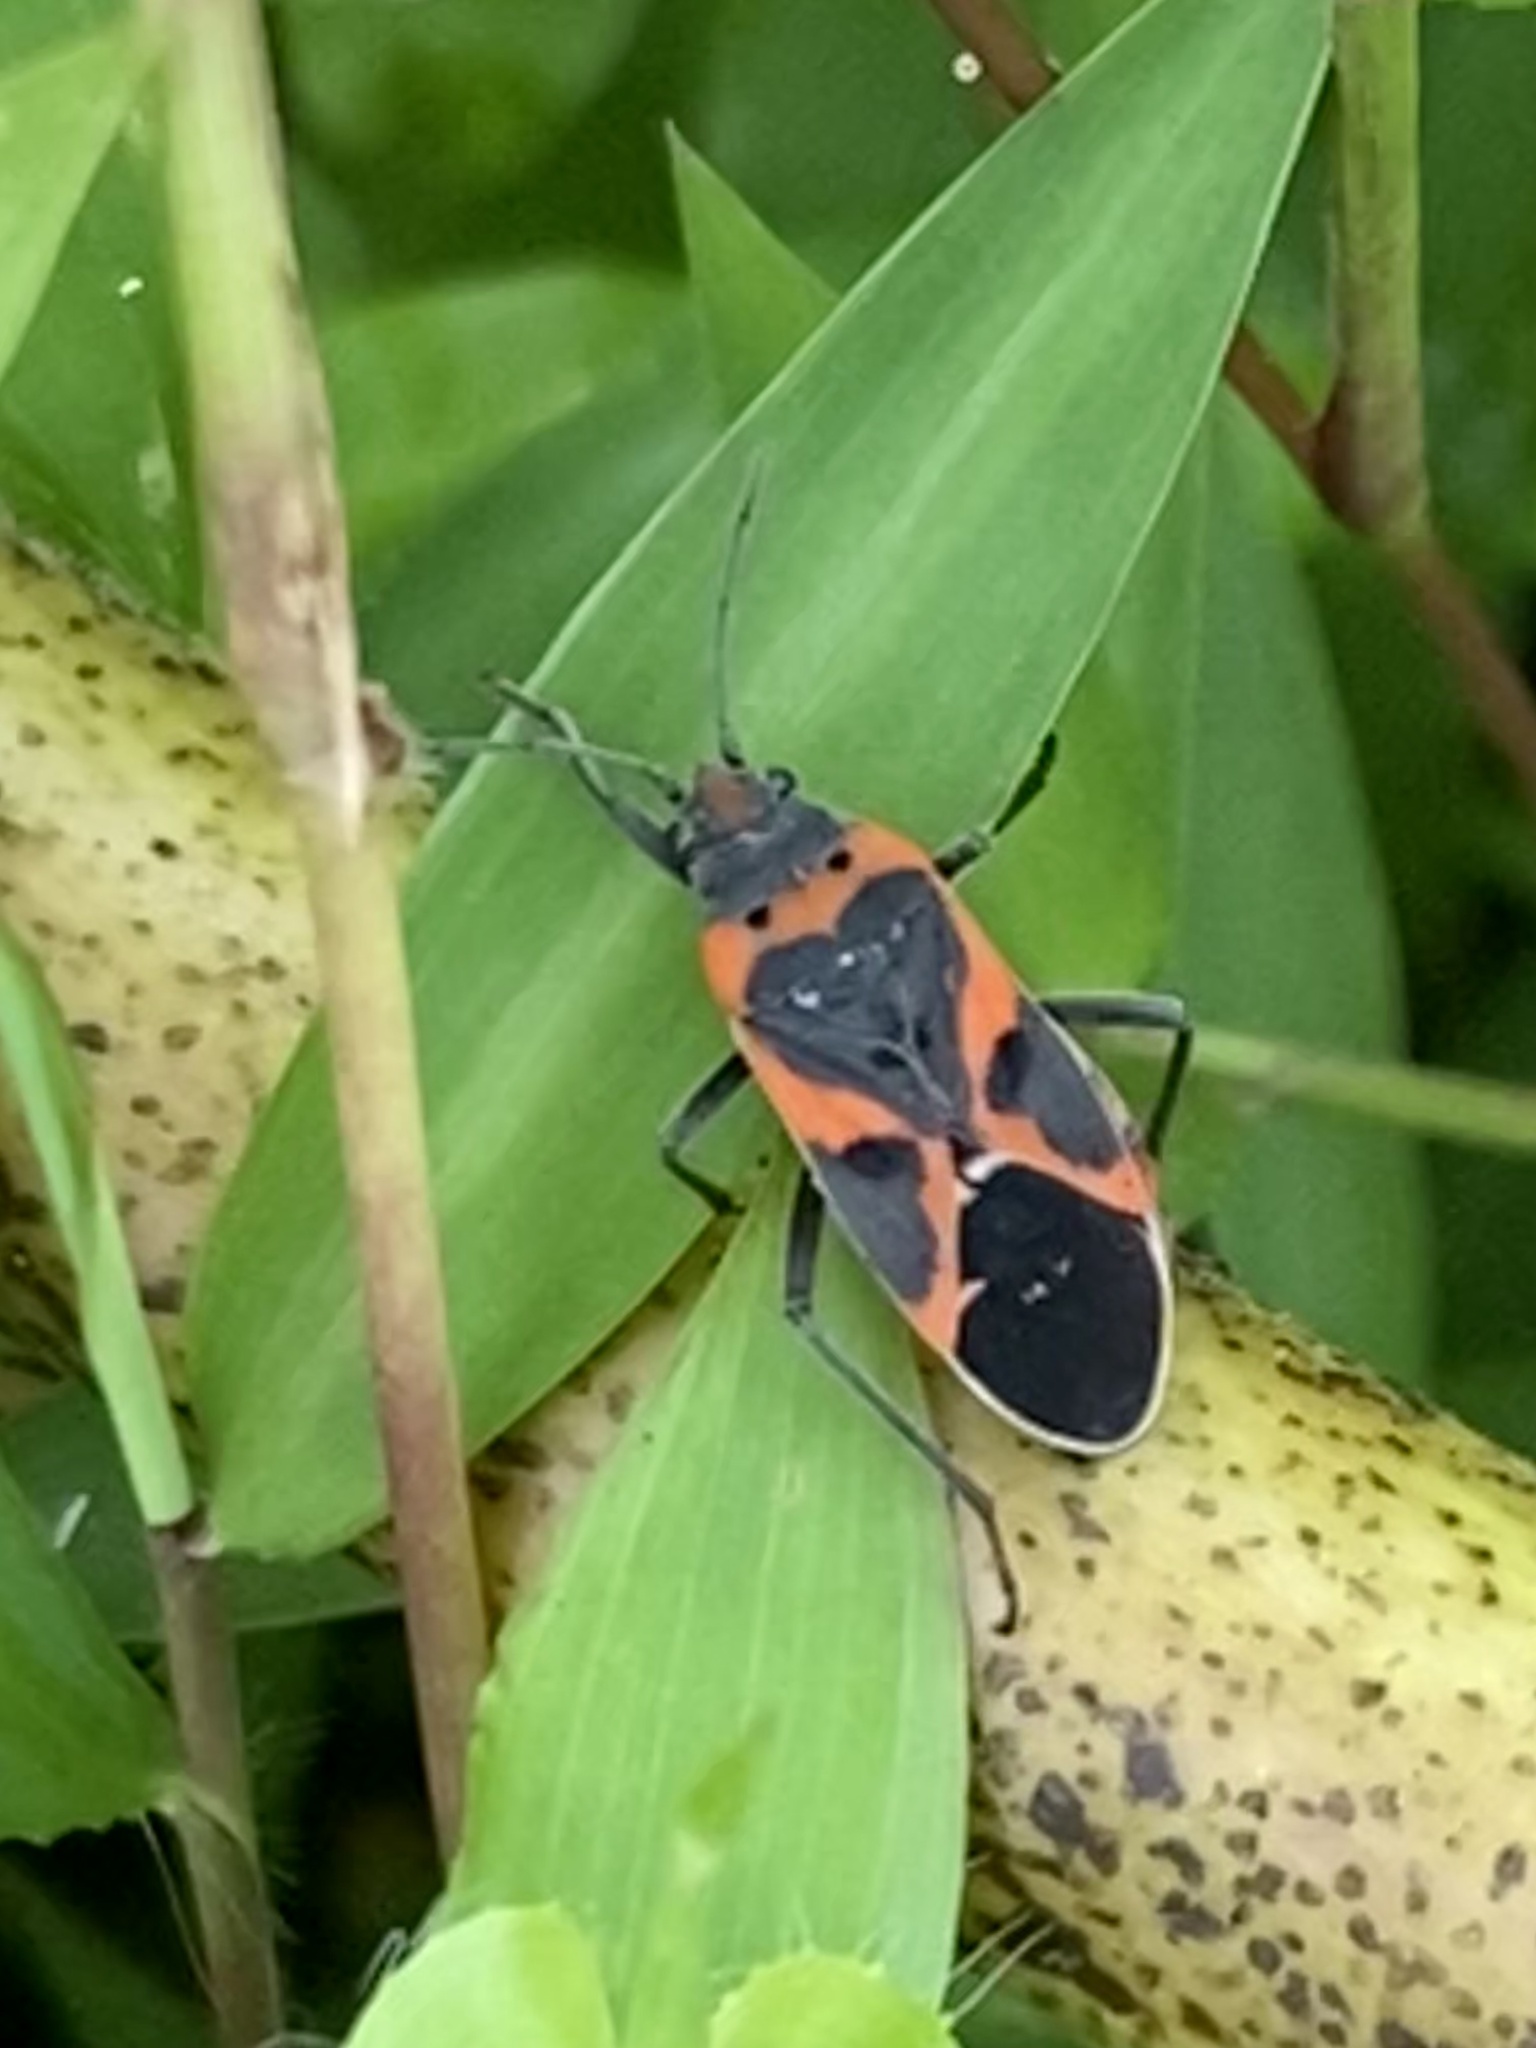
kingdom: Animalia
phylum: Arthropoda
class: Insecta
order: Hemiptera
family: Lygaeidae
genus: Lygaeus
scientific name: Lygaeus kalmii
